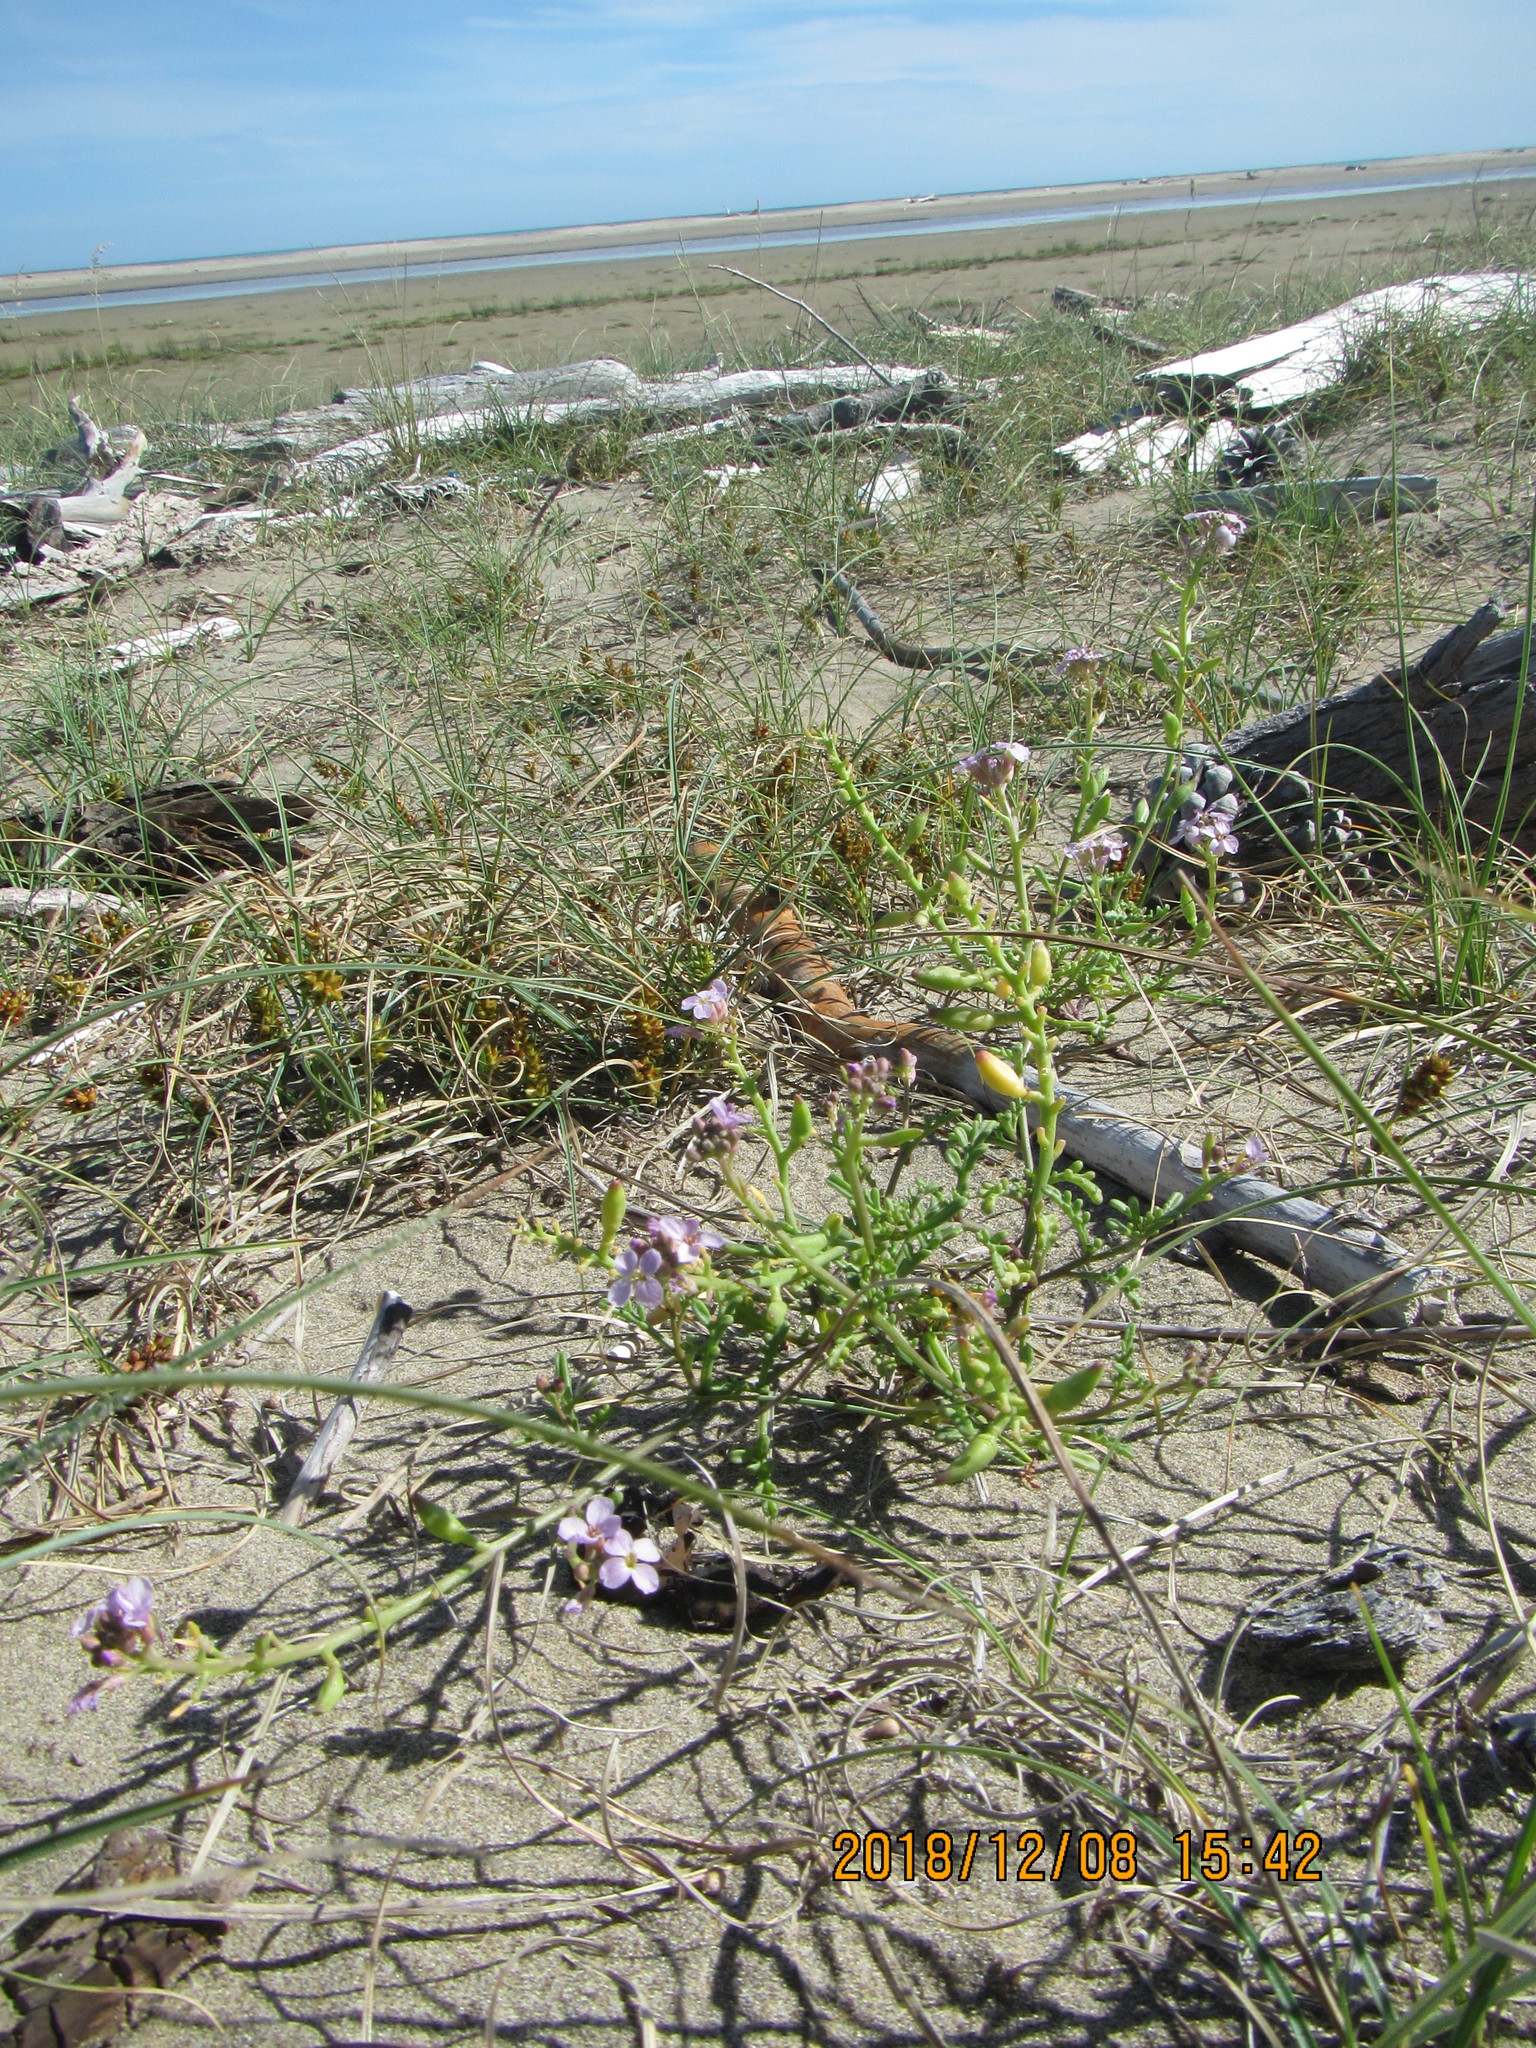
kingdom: Plantae
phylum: Tracheophyta
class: Magnoliopsida
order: Brassicales
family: Brassicaceae
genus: Cakile
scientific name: Cakile maritima
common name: Sea rocket
